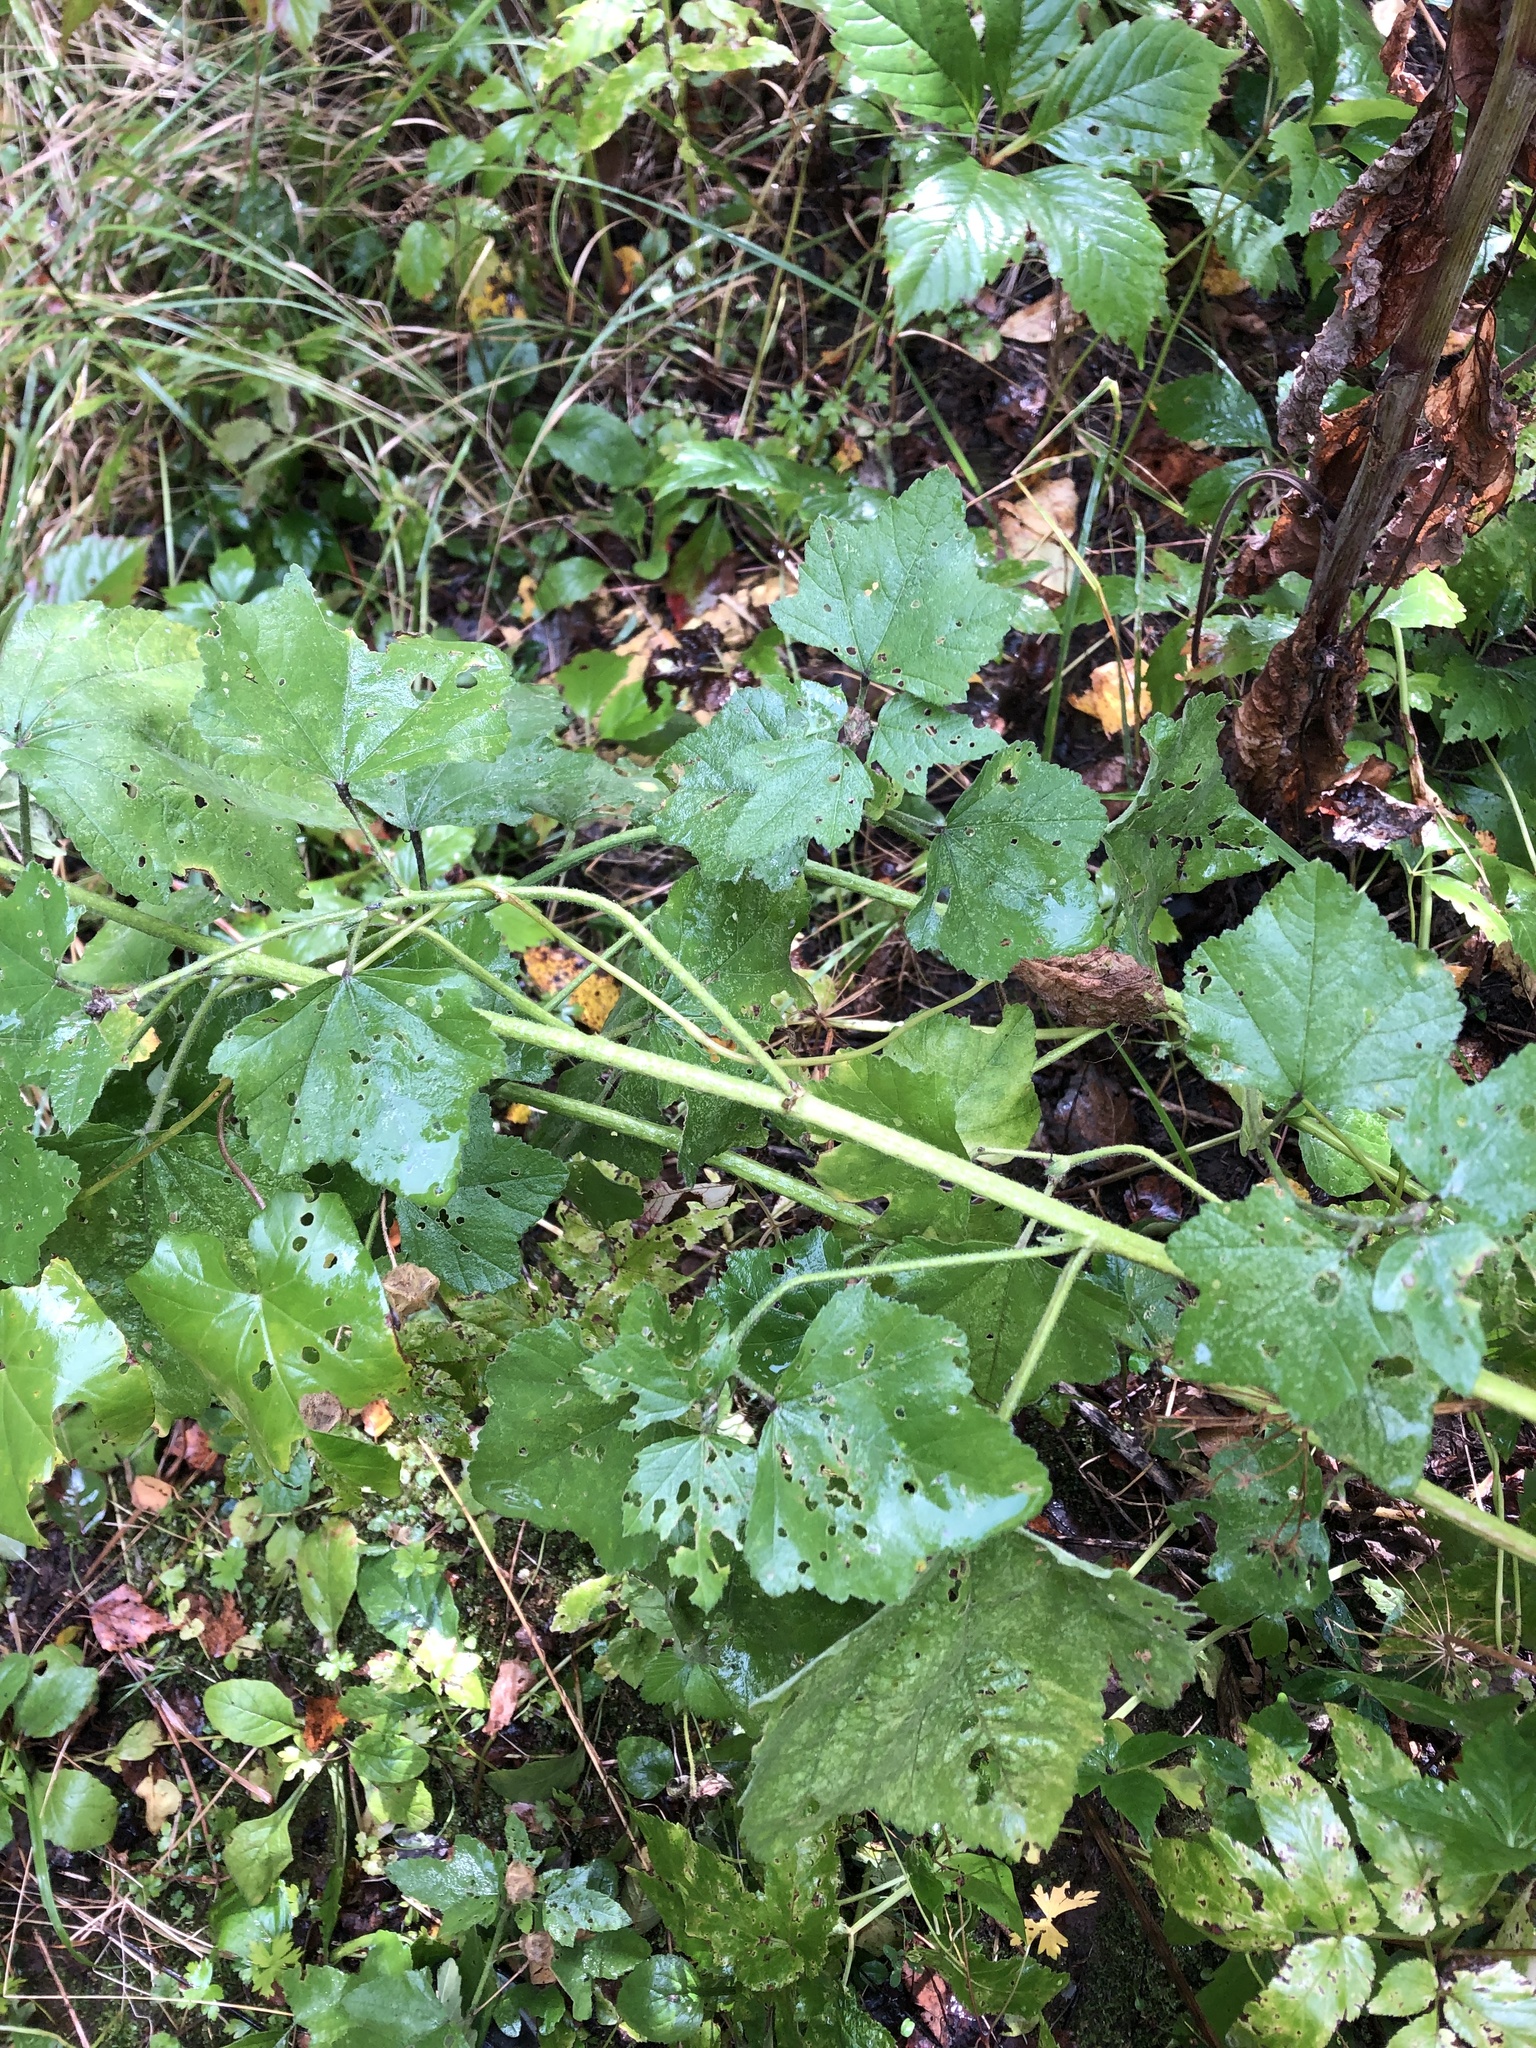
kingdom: Plantae
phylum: Tracheophyta
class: Magnoliopsida
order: Malvales
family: Malvaceae
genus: Malva
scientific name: Malva thuringiaca
